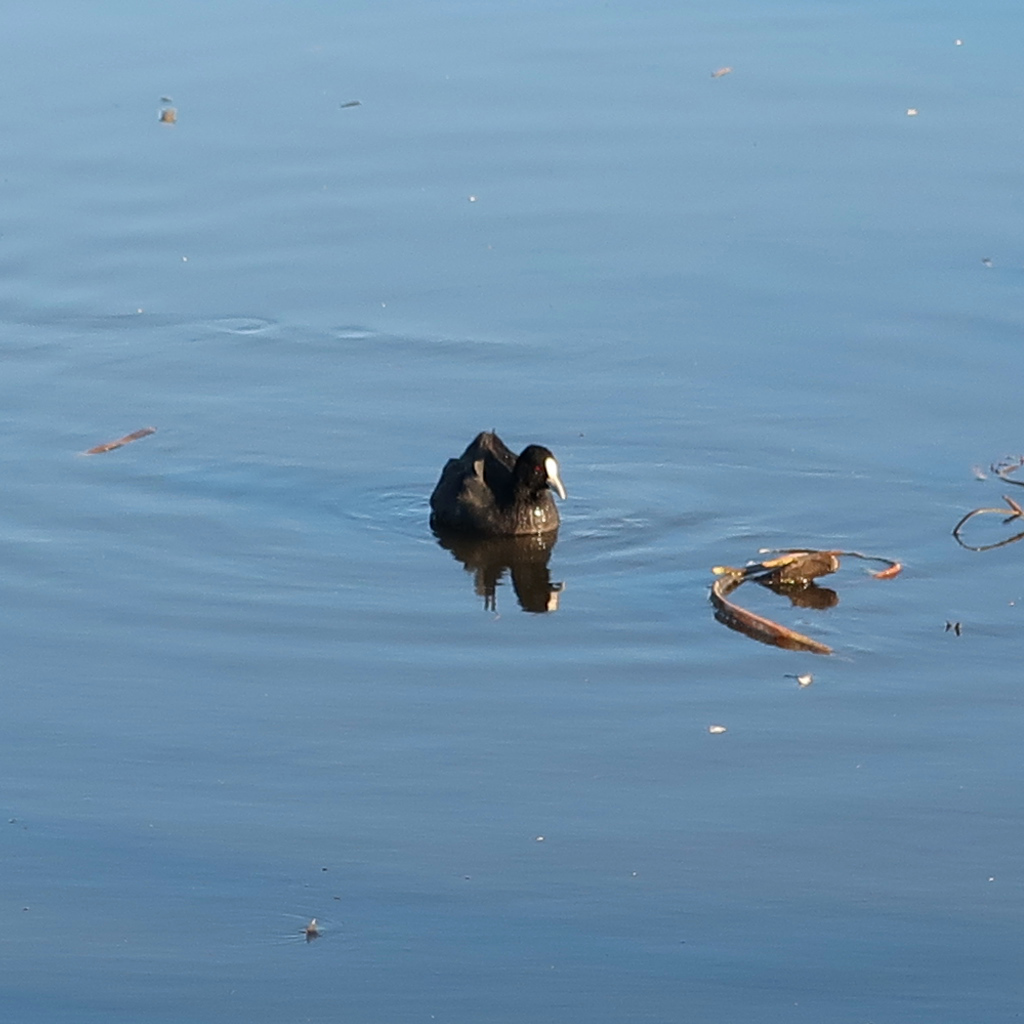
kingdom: Animalia
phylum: Chordata
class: Aves
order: Gruiformes
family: Rallidae
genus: Fulica
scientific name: Fulica atra
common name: Eurasian coot
